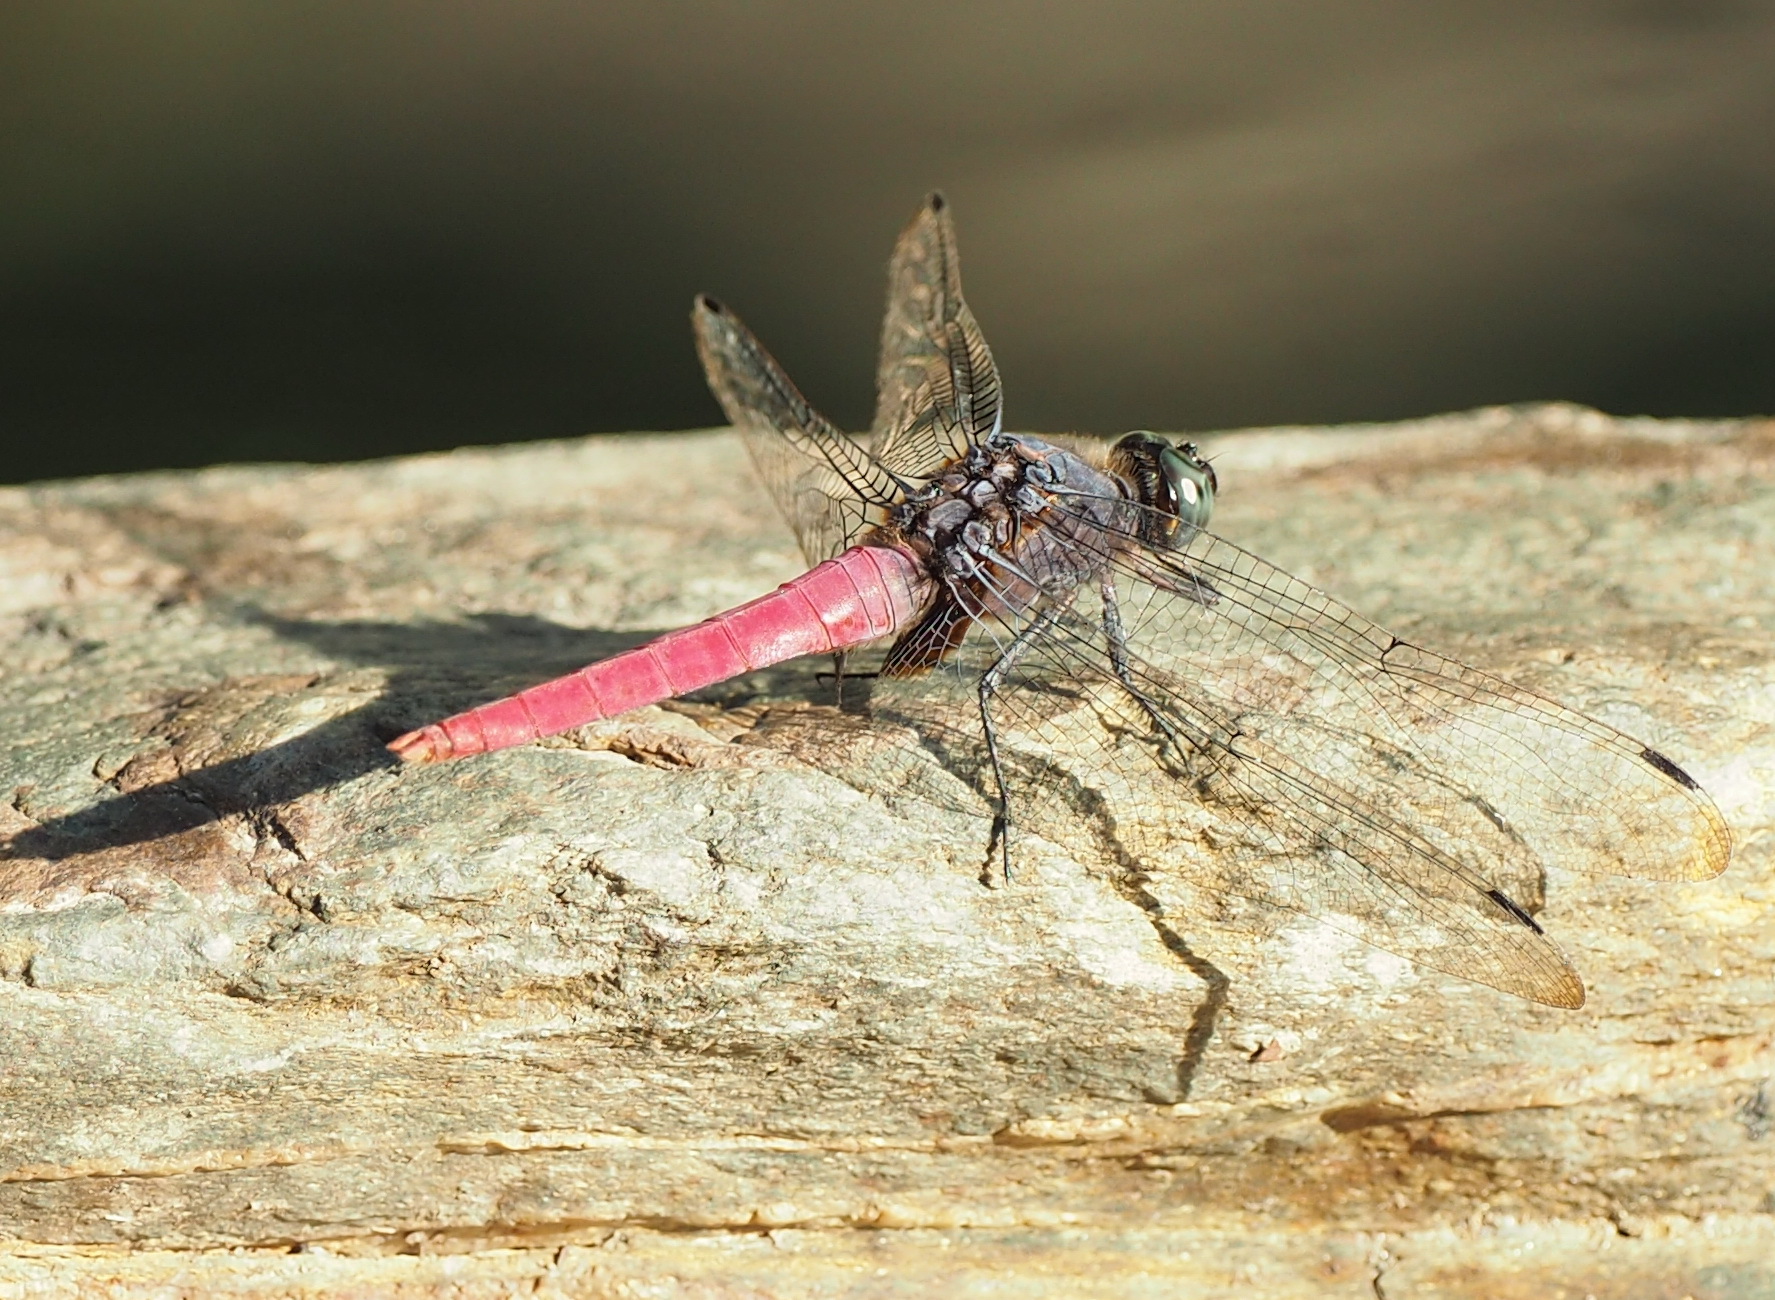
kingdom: Animalia
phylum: Arthropoda
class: Insecta
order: Odonata
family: Libellulidae
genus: Orthetrum
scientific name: Orthetrum pruinosum
